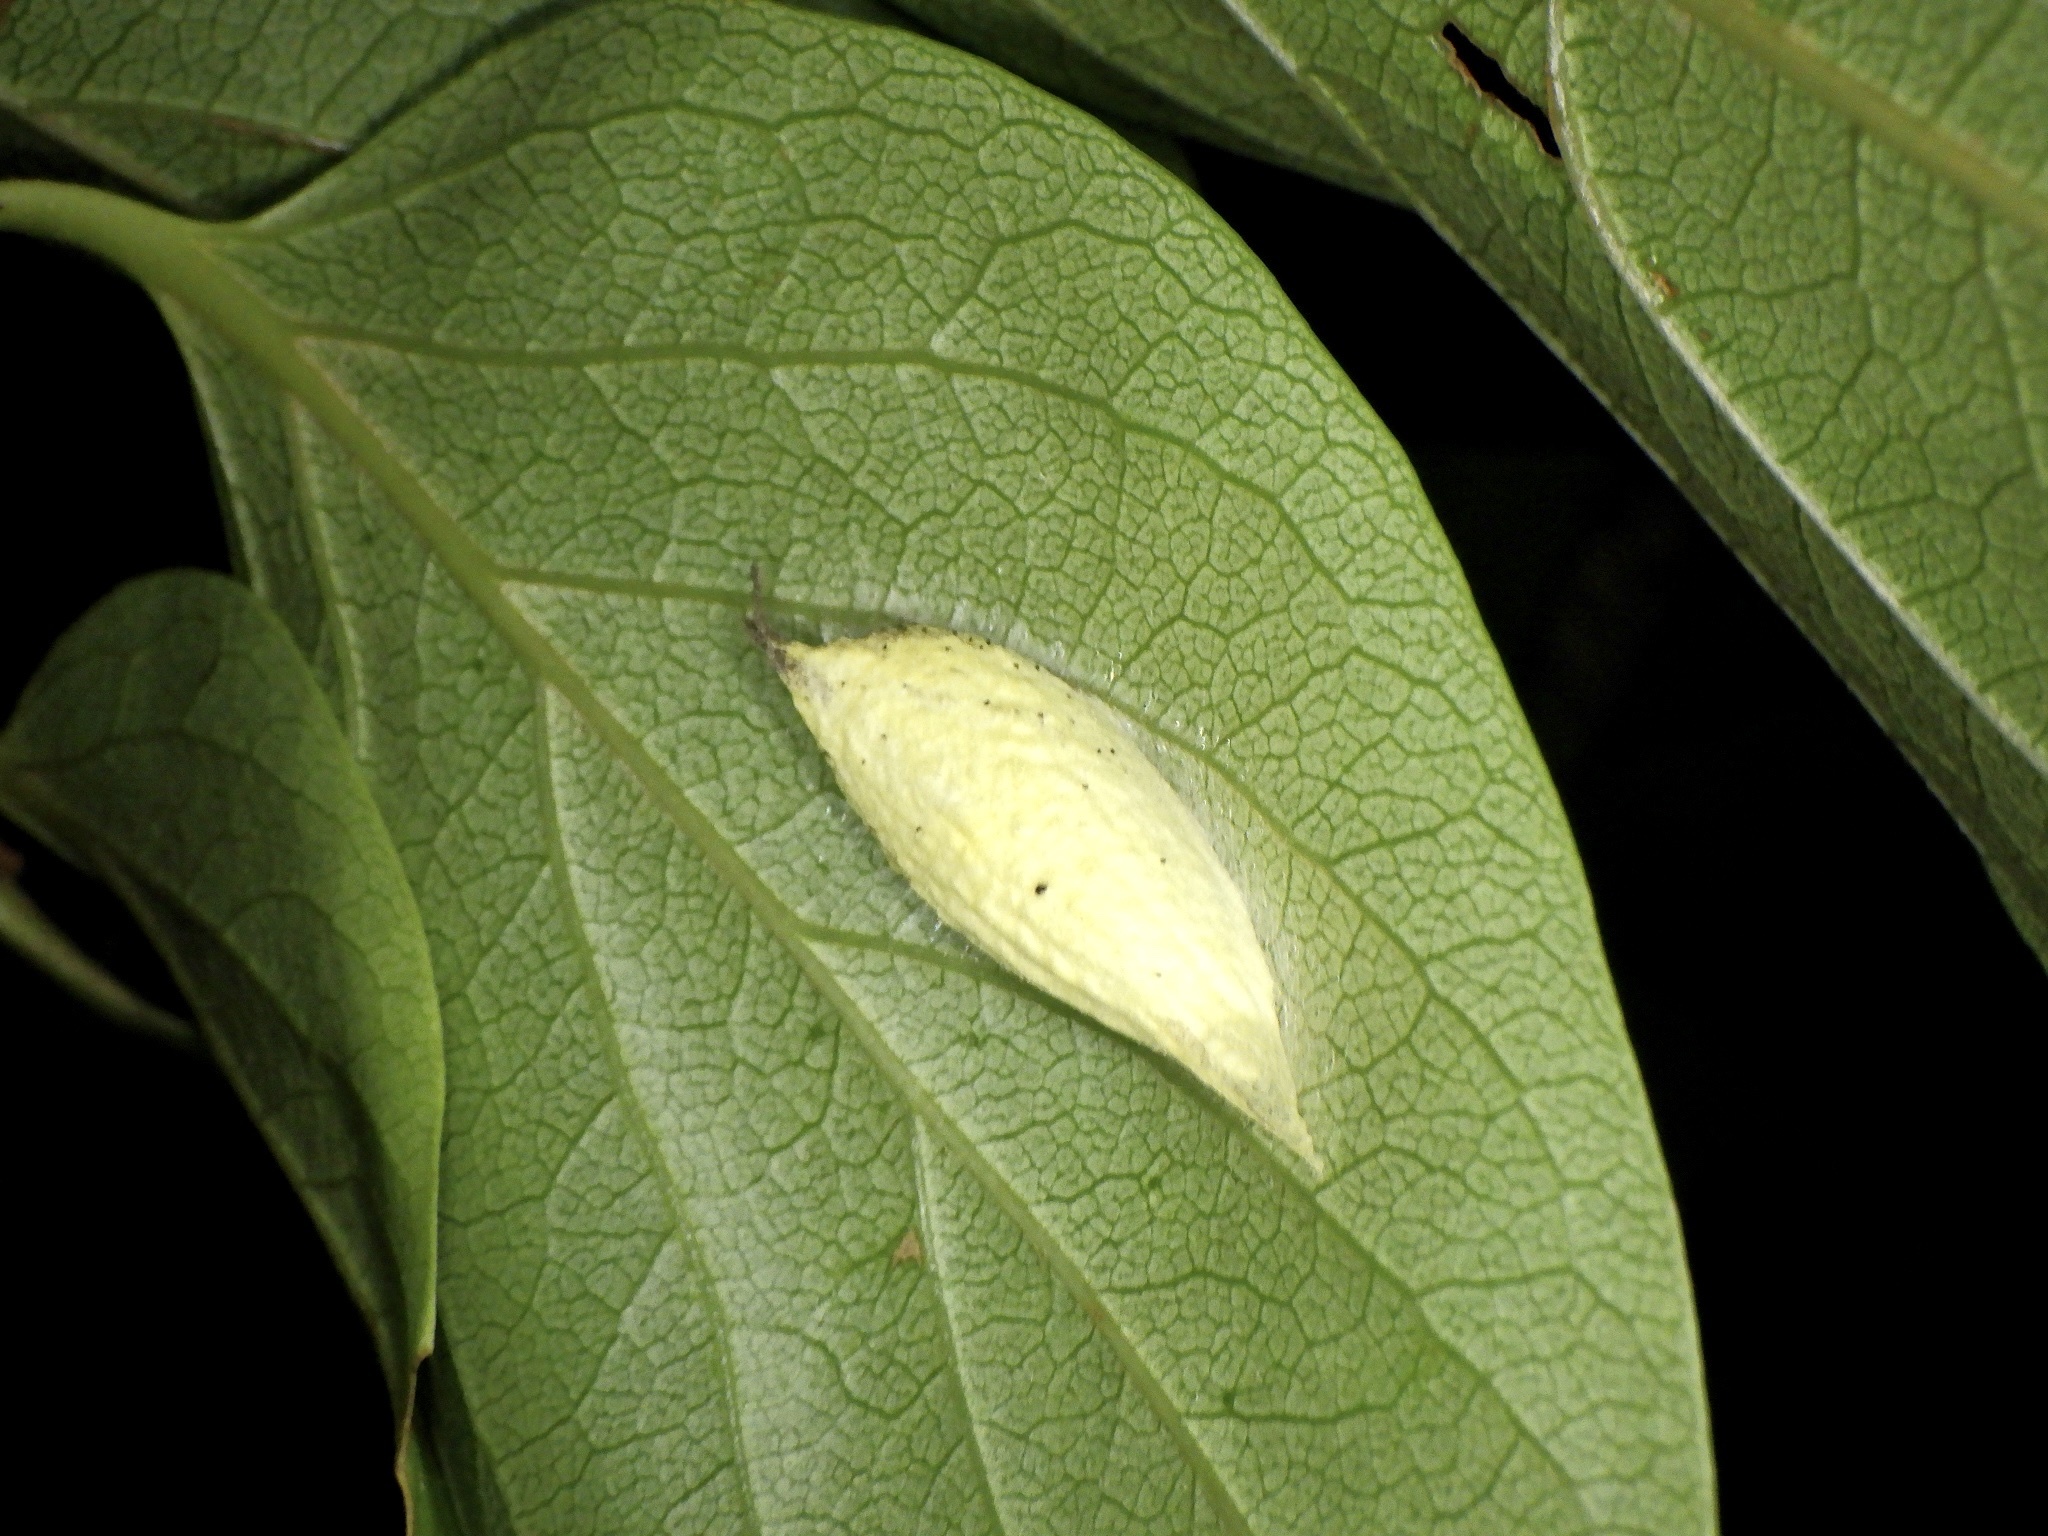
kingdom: Animalia
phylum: Arthropoda
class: Insecta
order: Lepidoptera
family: Nolidae
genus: Blenina
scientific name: Blenina senex
